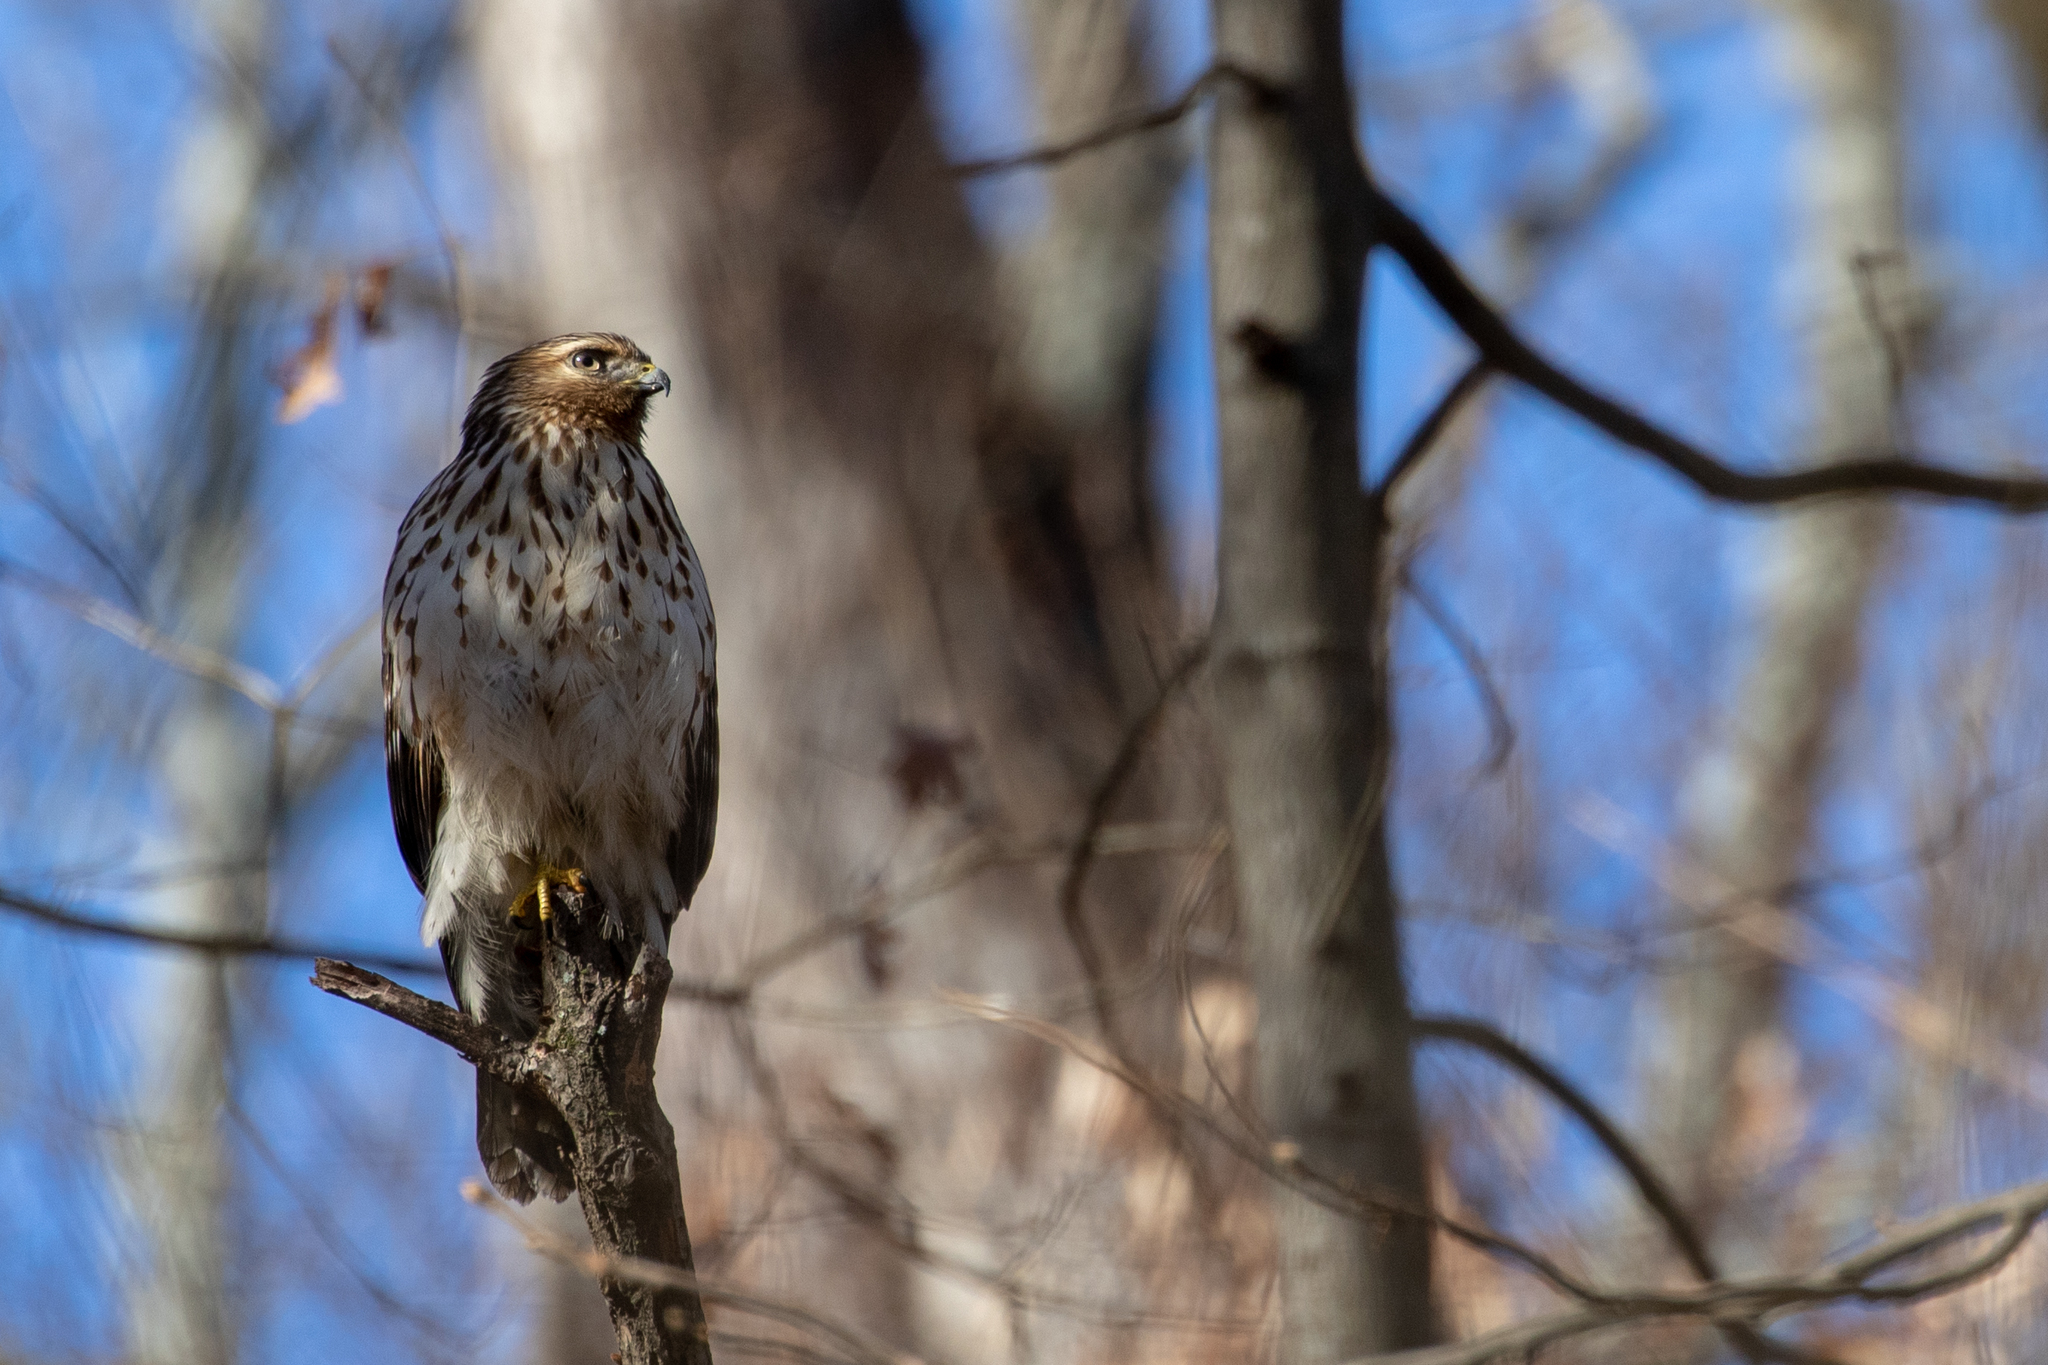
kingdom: Animalia
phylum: Chordata
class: Aves
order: Accipitriformes
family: Accipitridae
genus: Buteo
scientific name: Buteo lineatus
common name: Red-shouldered hawk
